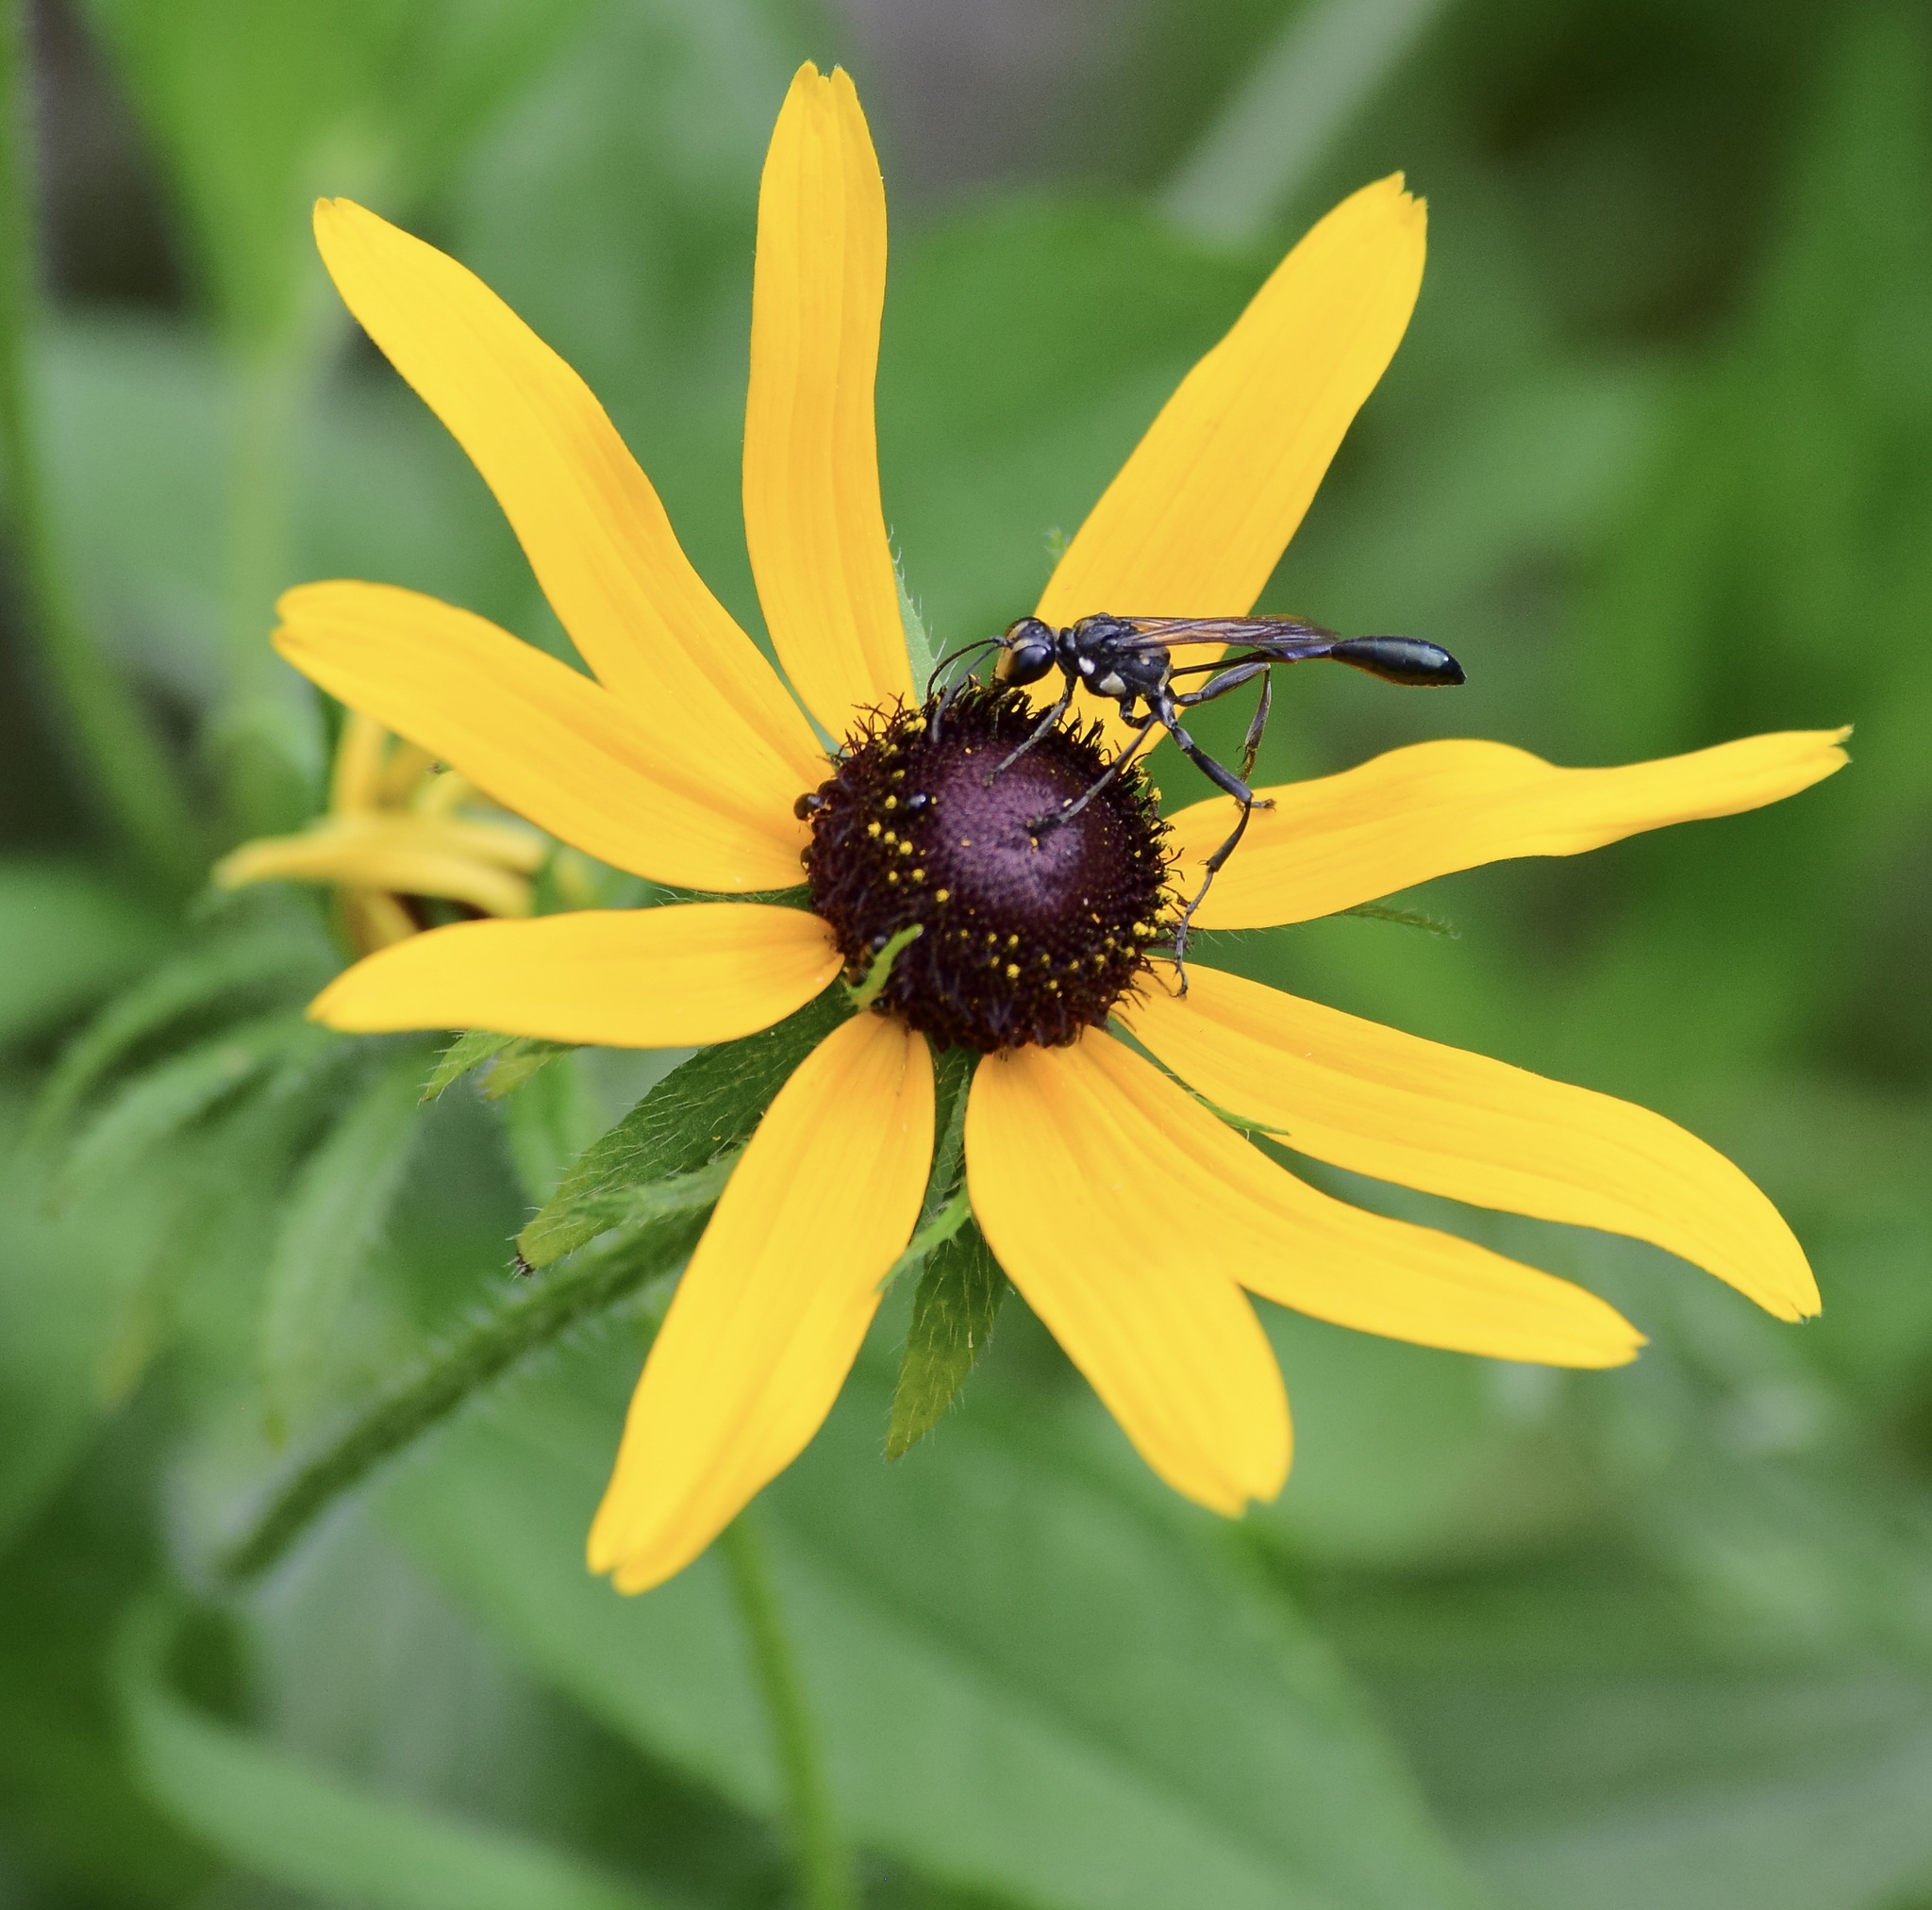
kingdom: Animalia
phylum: Arthropoda
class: Insecta
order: Hymenoptera
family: Sphecidae
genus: Eremnophila
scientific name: Eremnophila aureonotata
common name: Gold-marked thread-waisted wasp
